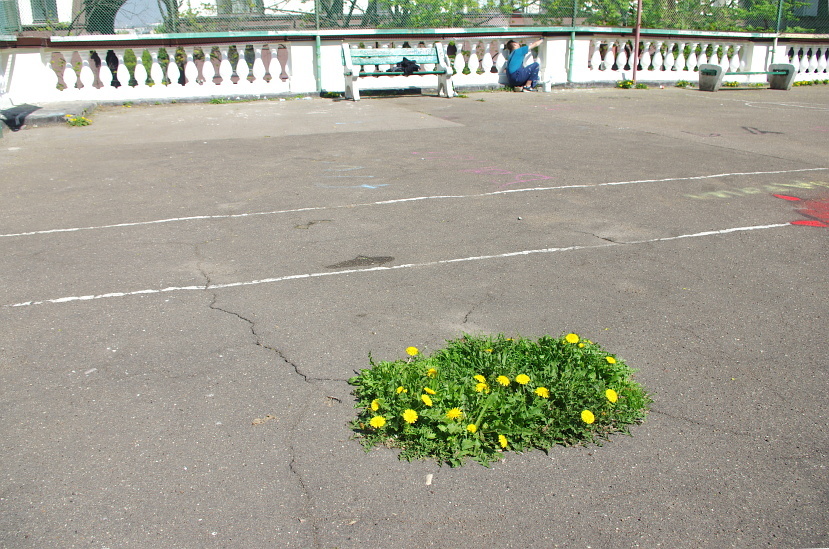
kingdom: Plantae
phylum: Tracheophyta
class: Magnoliopsida
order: Asterales
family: Asteraceae
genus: Taraxacum
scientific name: Taraxacum officinale
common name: Common dandelion
